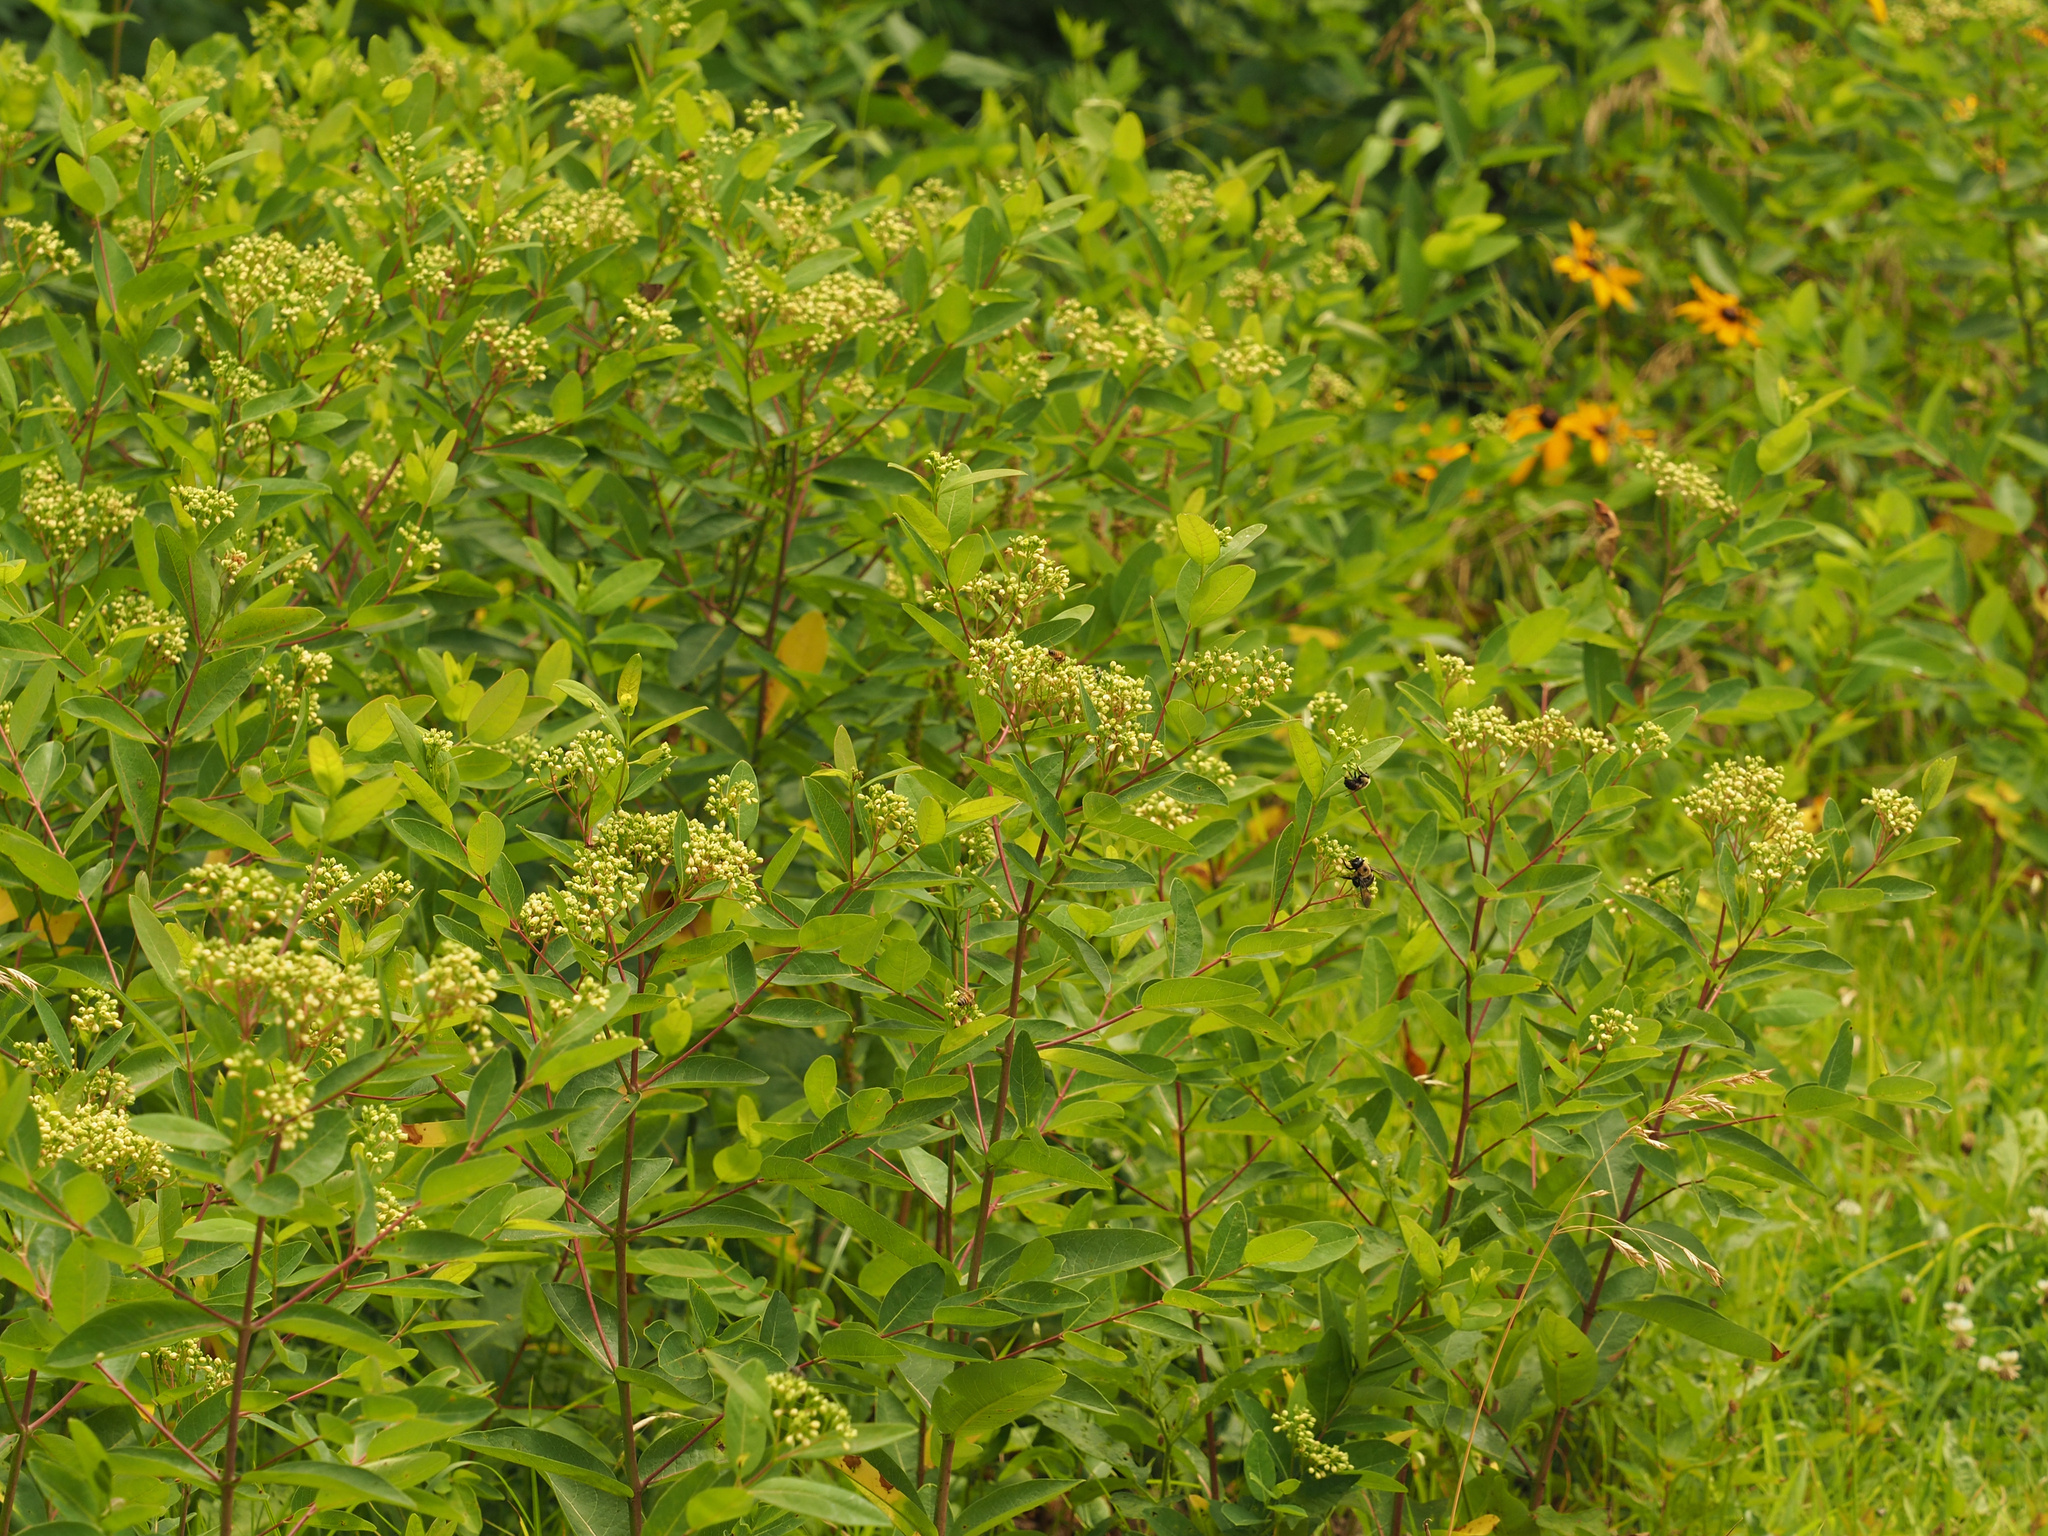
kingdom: Plantae
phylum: Tracheophyta
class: Magnoliopsida
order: Gentianales
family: Apocynaceae
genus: Apocynum
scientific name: Apocynum cannabinum
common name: Hemp dogbane
